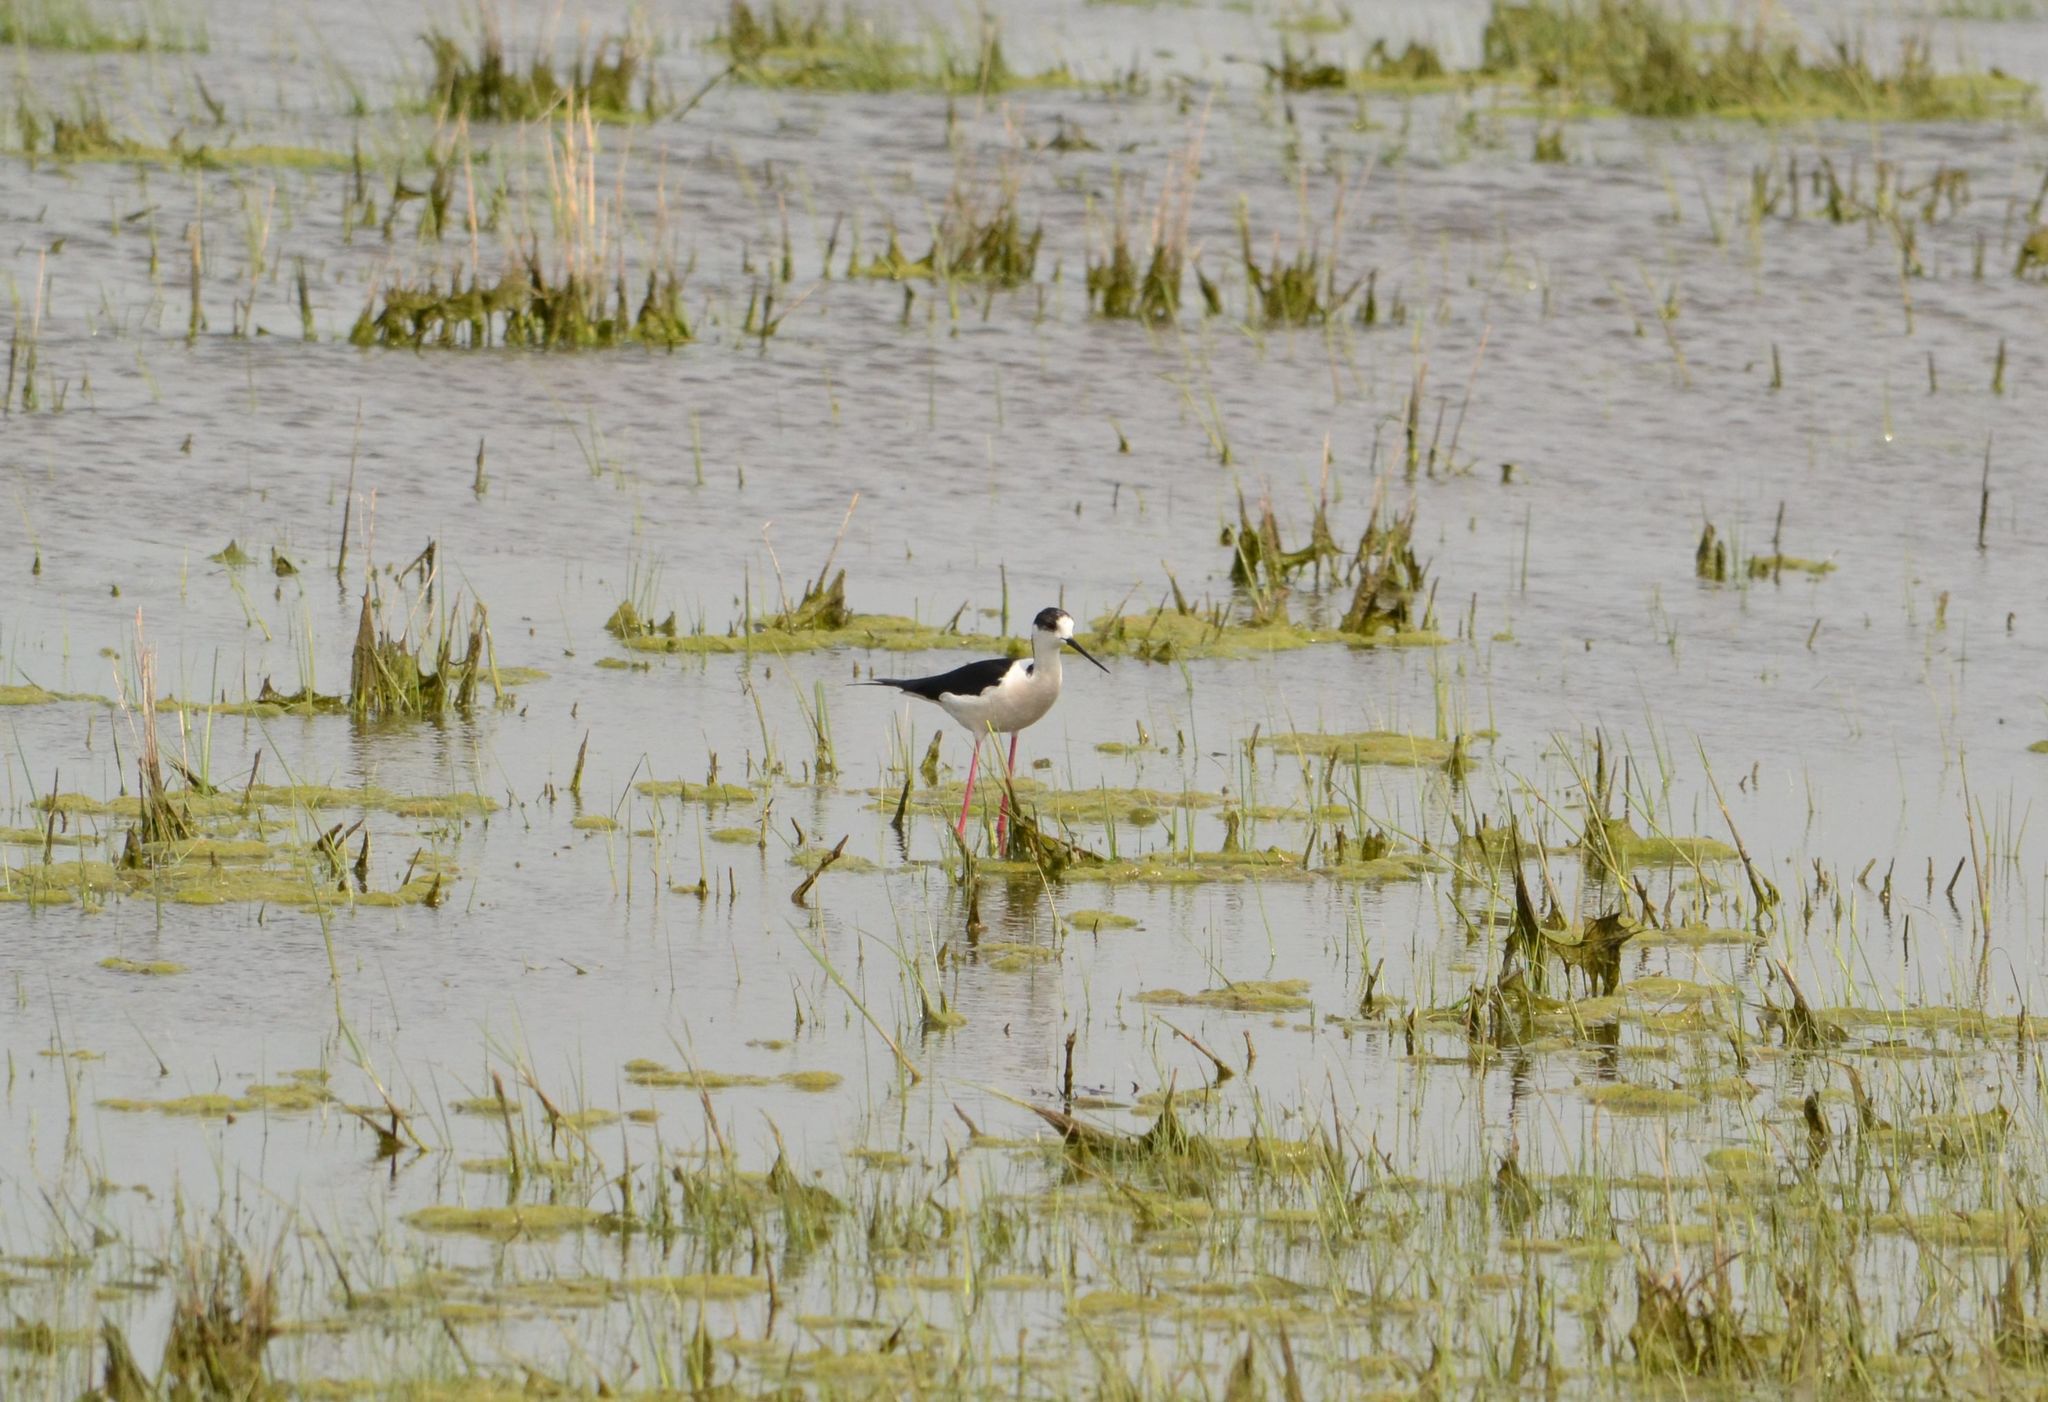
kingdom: Animalia
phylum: Chordata
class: Aves
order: Charadriiformes
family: Recurvirostridae
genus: Himantopus
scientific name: Himantopus himantopus
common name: Black-winged stilt
